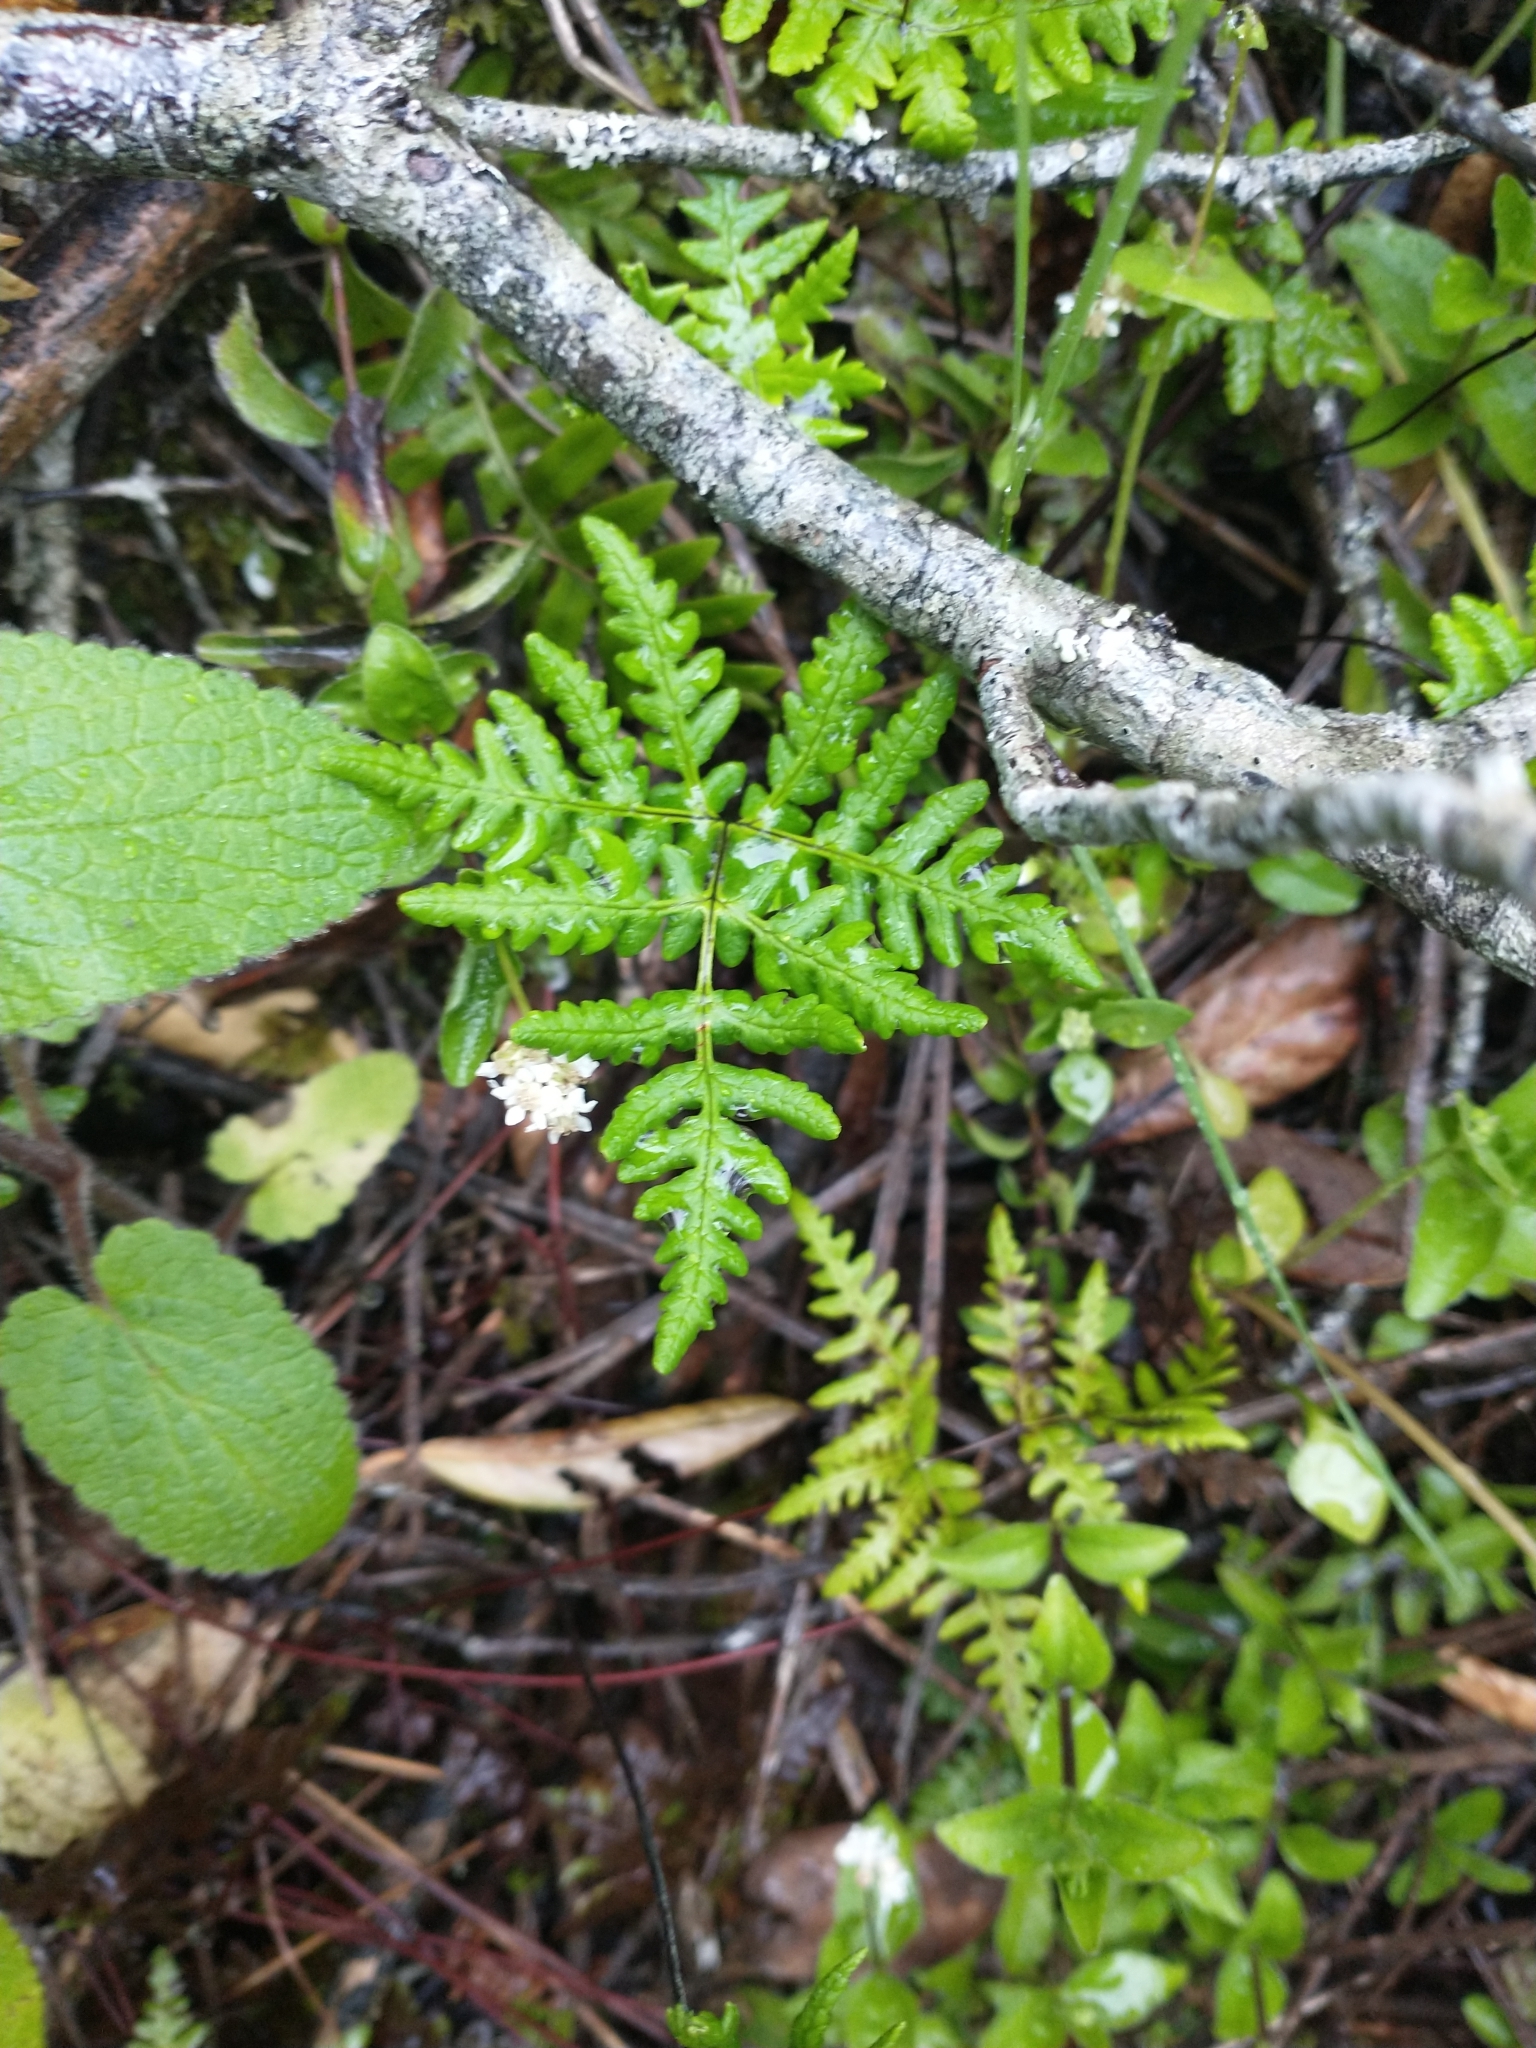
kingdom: Plantae
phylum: Tracheophyta
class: Polypodiopsida
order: Polypodiales
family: Pteridaceae
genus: Pentagramma
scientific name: Pentagramma triangularis
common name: Gold fern
